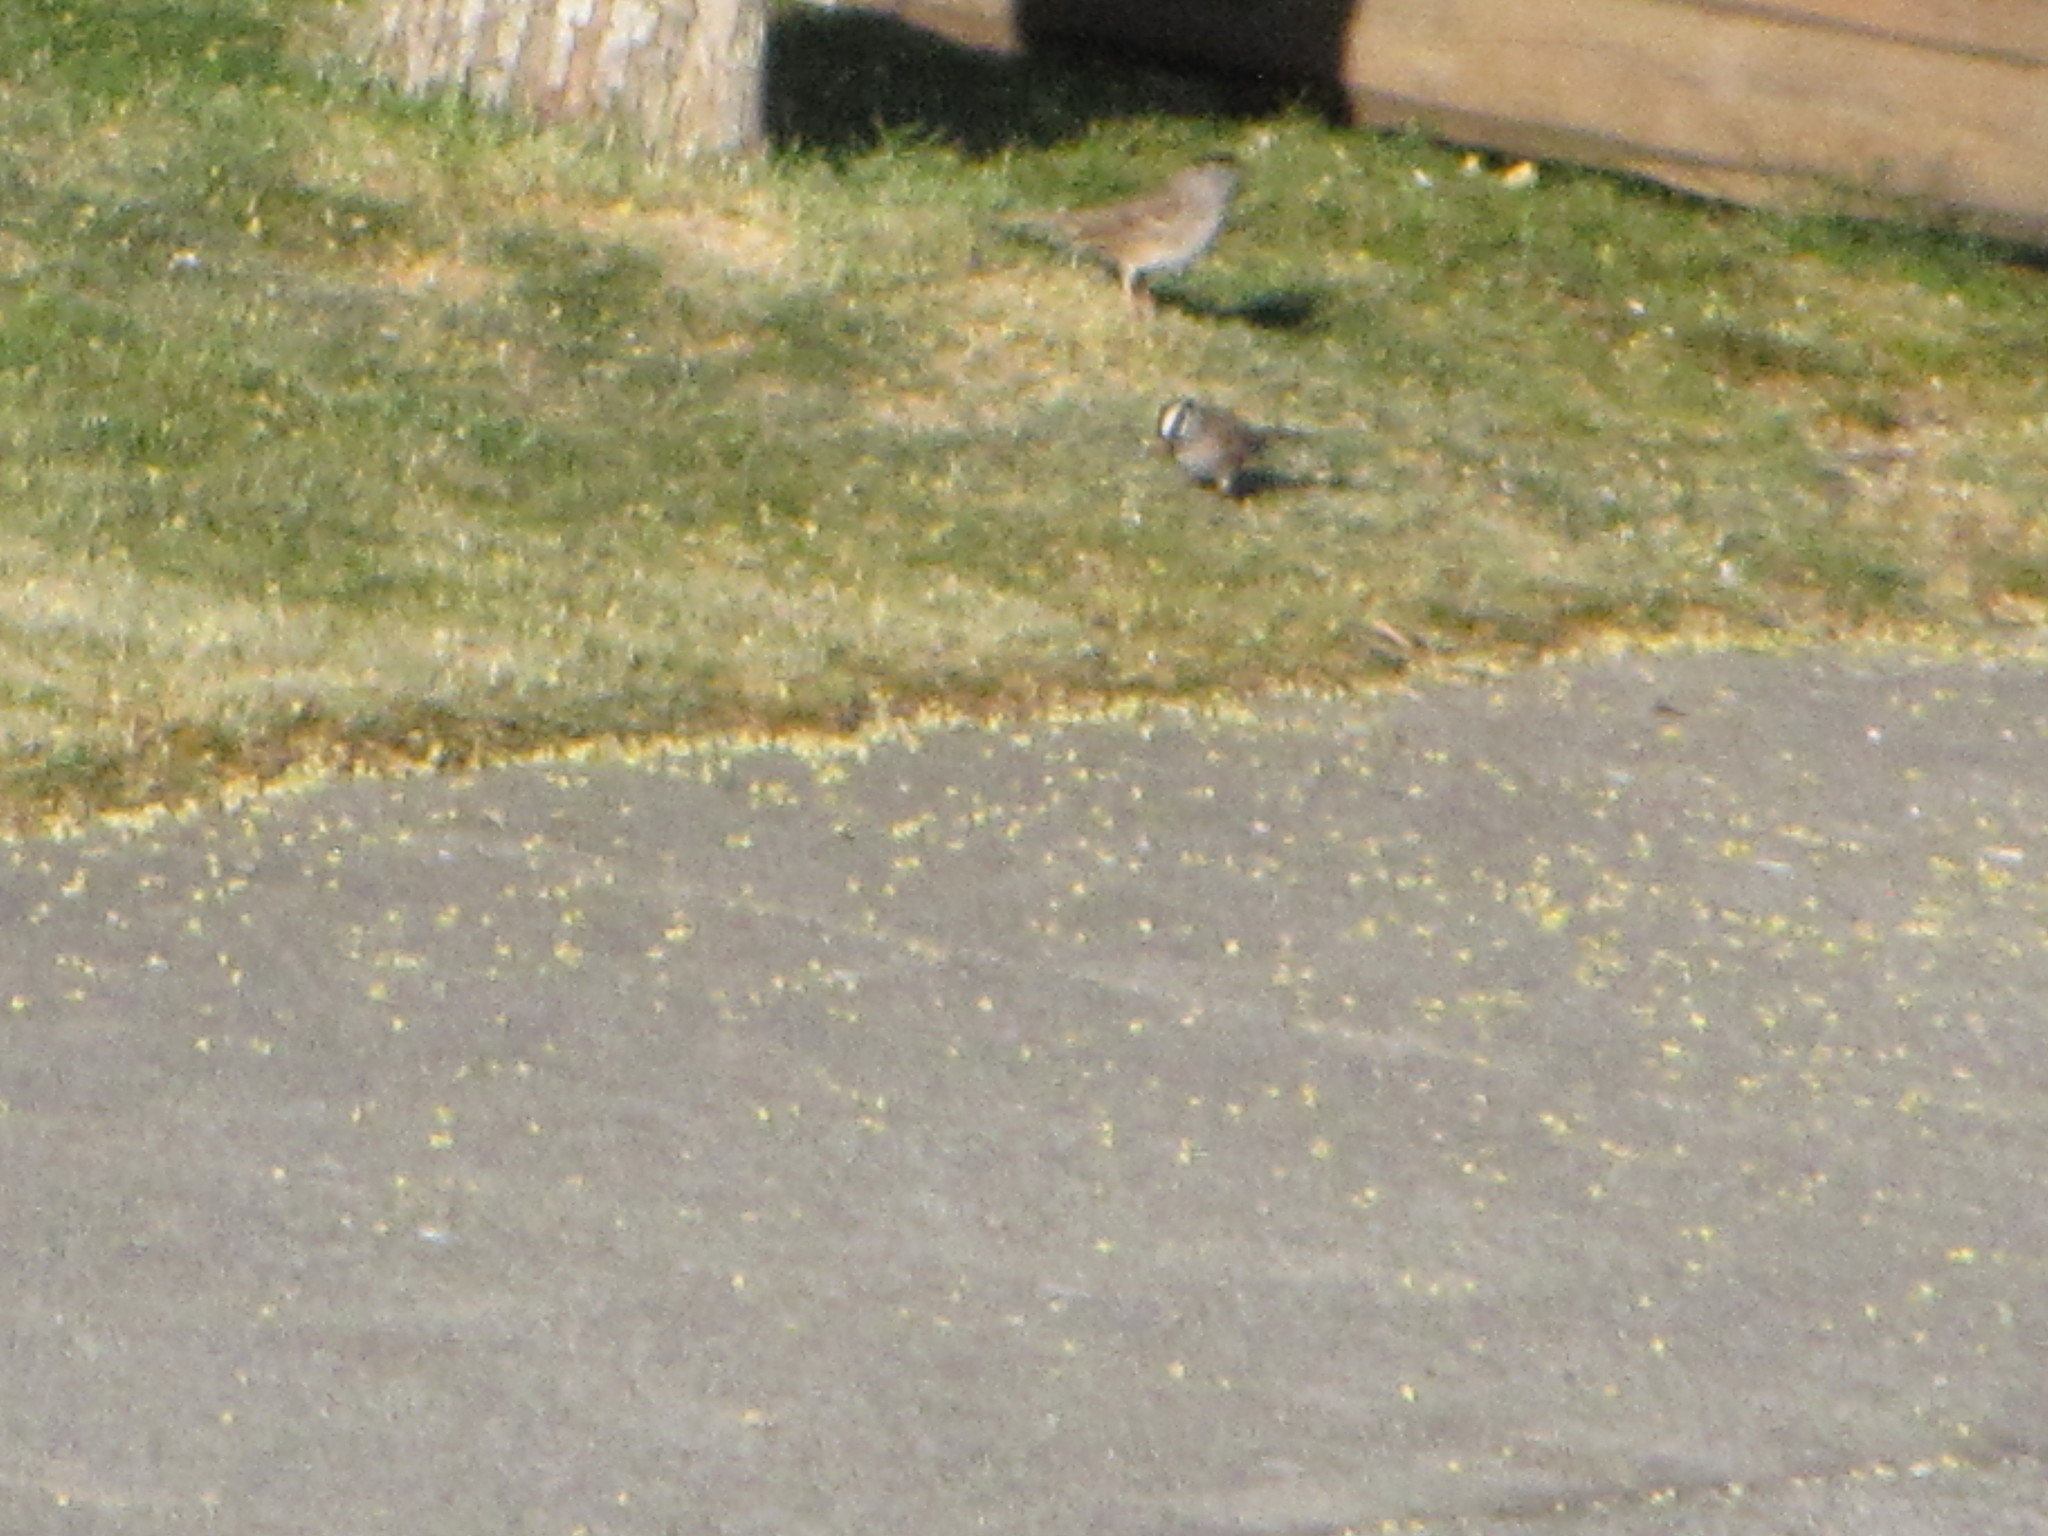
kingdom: Animalia
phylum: Chordata
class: Aves
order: Passeriformes
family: Passerellidae
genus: Zonotrichia
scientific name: Zonotrichia leucophrys
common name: White-crowned sparrow
